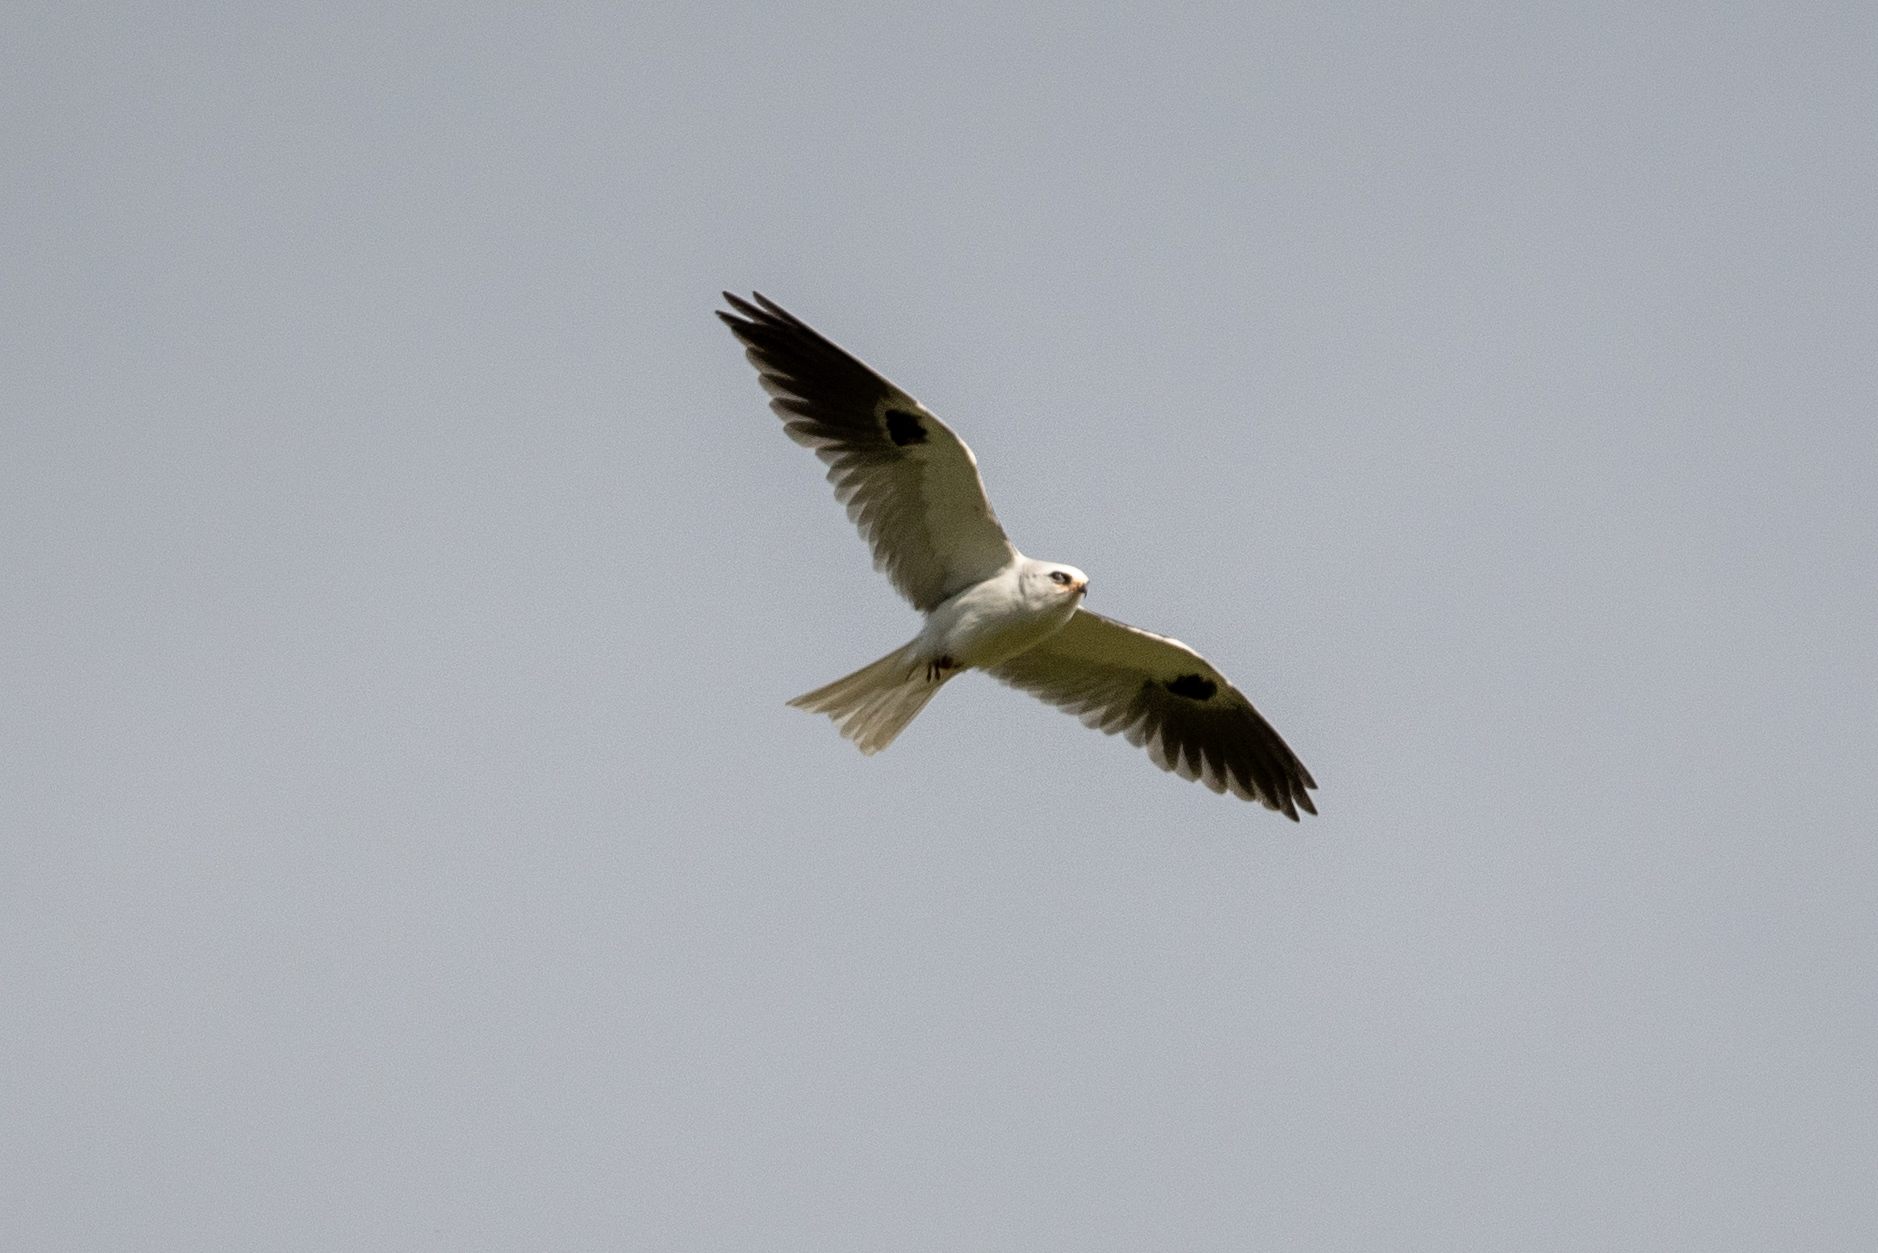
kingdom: Animalia
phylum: Chordata
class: Aves
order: Accipitriformes
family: Accipitridae
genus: Elanus
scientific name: Elanus leucurus
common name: White-tailed kite
